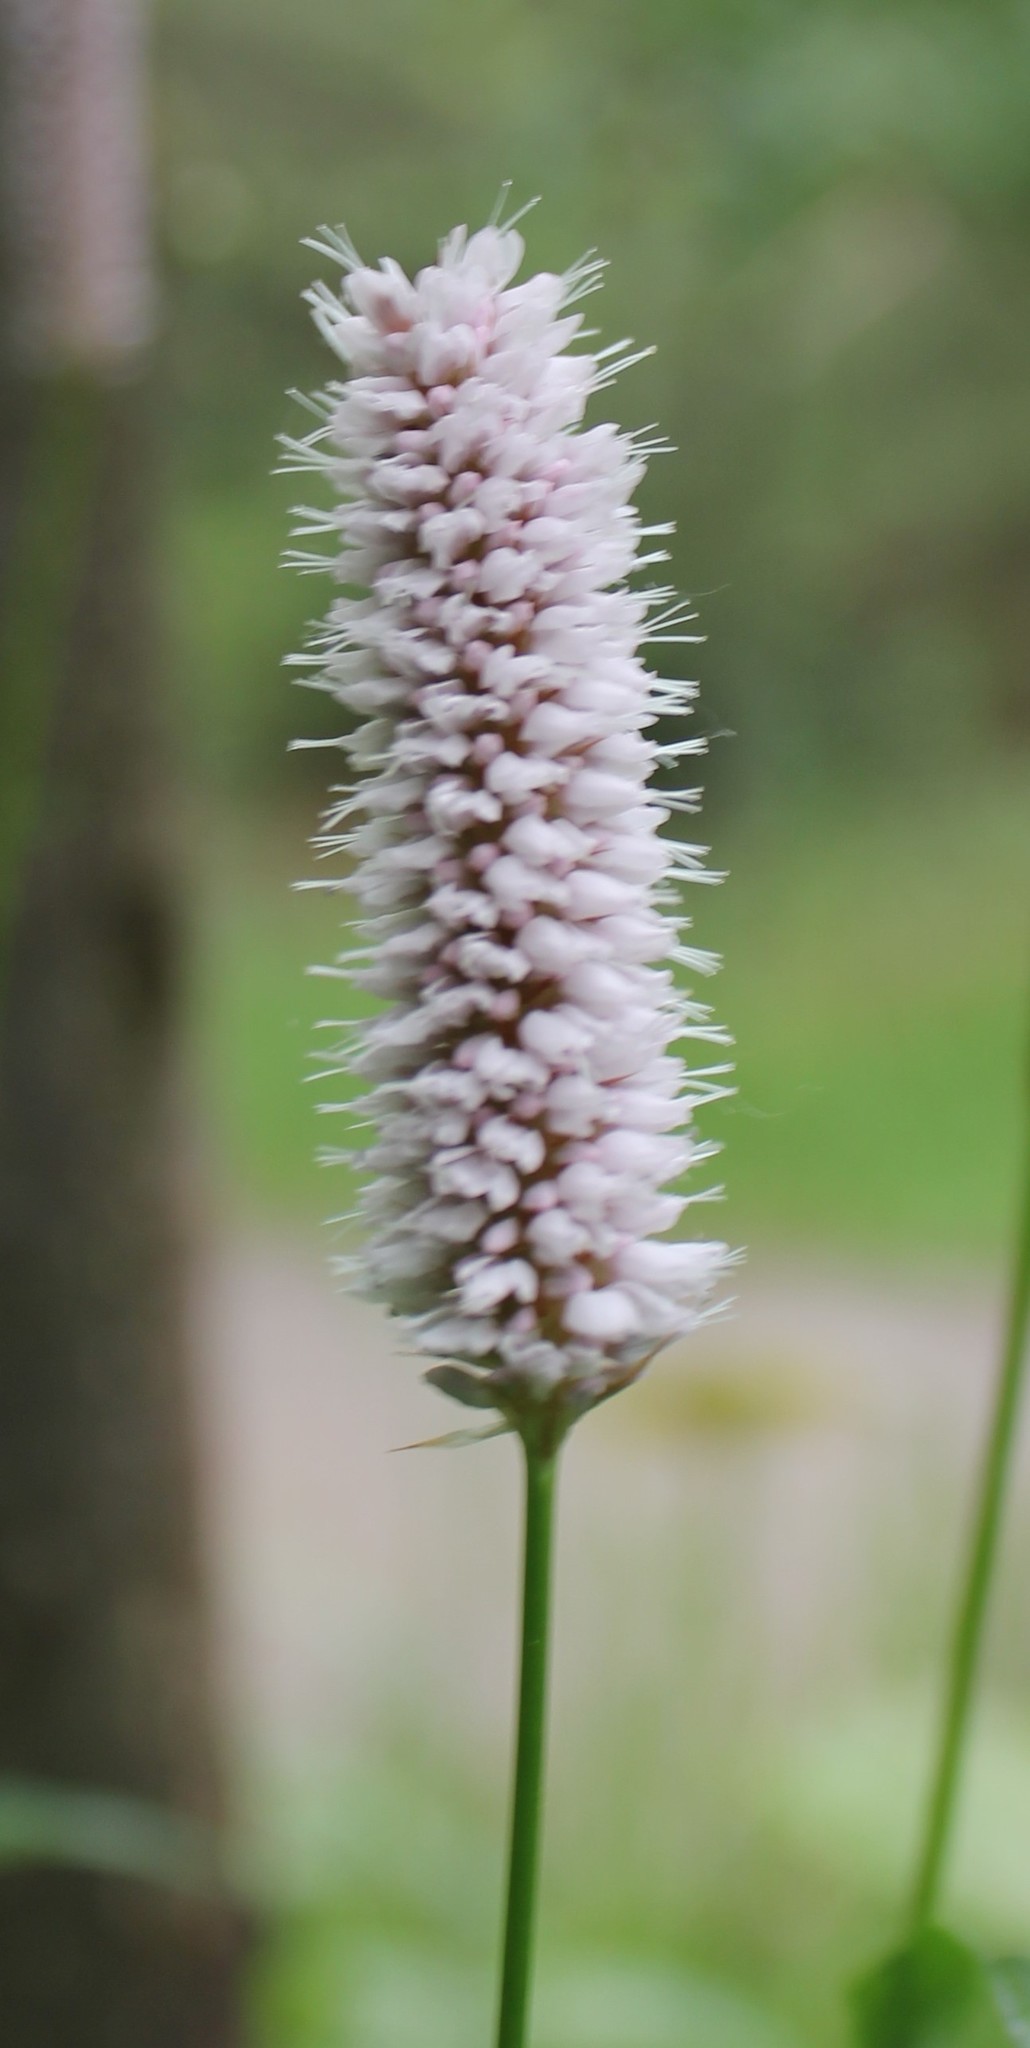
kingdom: Plantae
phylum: Tracheophyta
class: Magnoliopsida
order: Caryophyllales
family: Polygonaceae
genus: Bistorta
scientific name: Bistorta officinalis
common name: Common bistort
